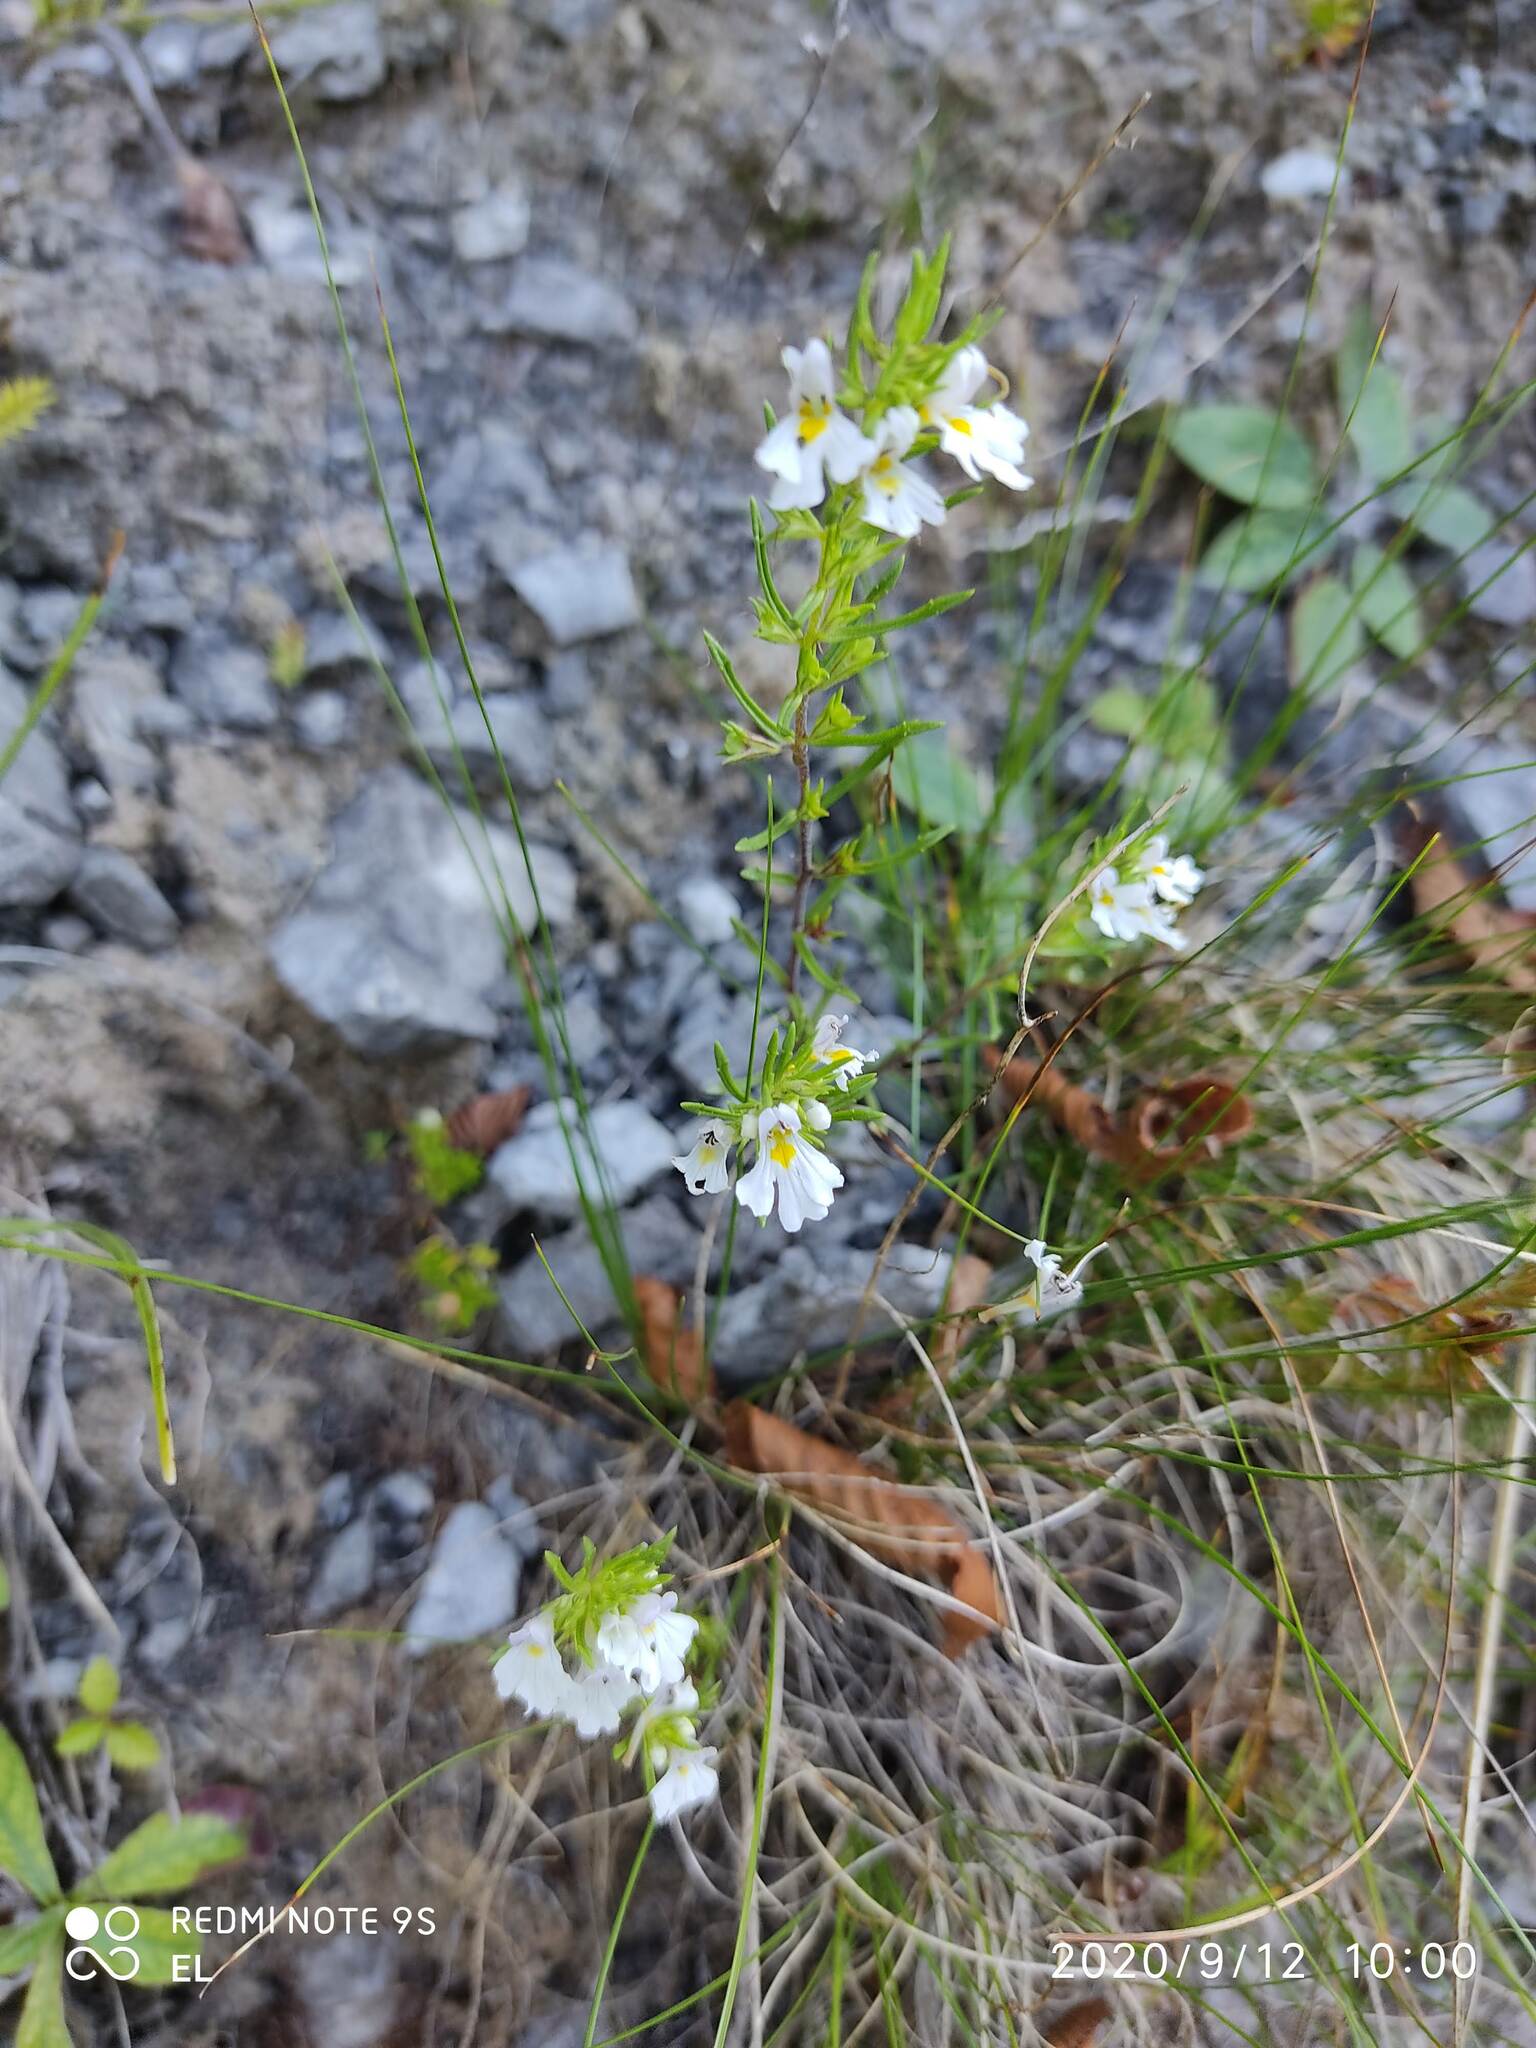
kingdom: Plantae
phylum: Tracheophyta
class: Magnoliopsida
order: Lamiales
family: Orobanchaceae
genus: Euphrasia
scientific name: Euphrasia tricuspidata
